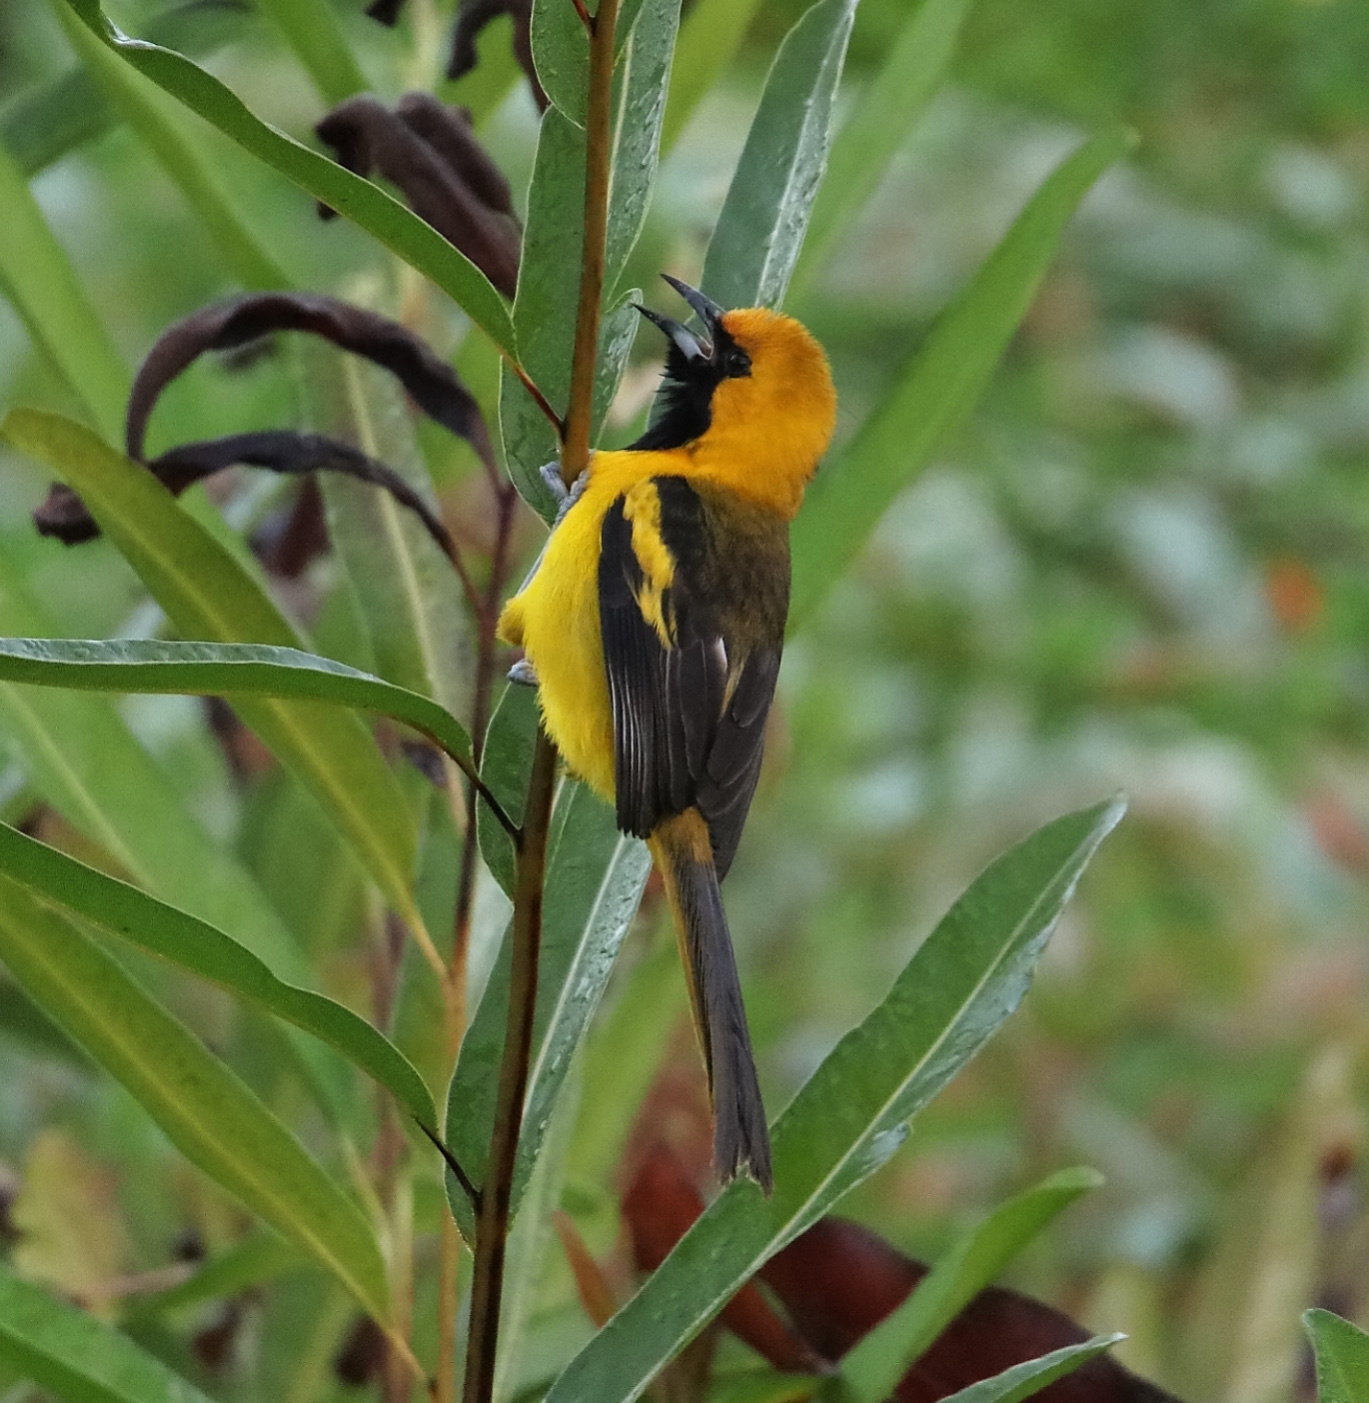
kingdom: Animalia
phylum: Chordata
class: Aves
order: Passeriformes
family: Icteridae
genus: Icterus
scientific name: Icterus mesomelas
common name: Yellow-tailed oriole
